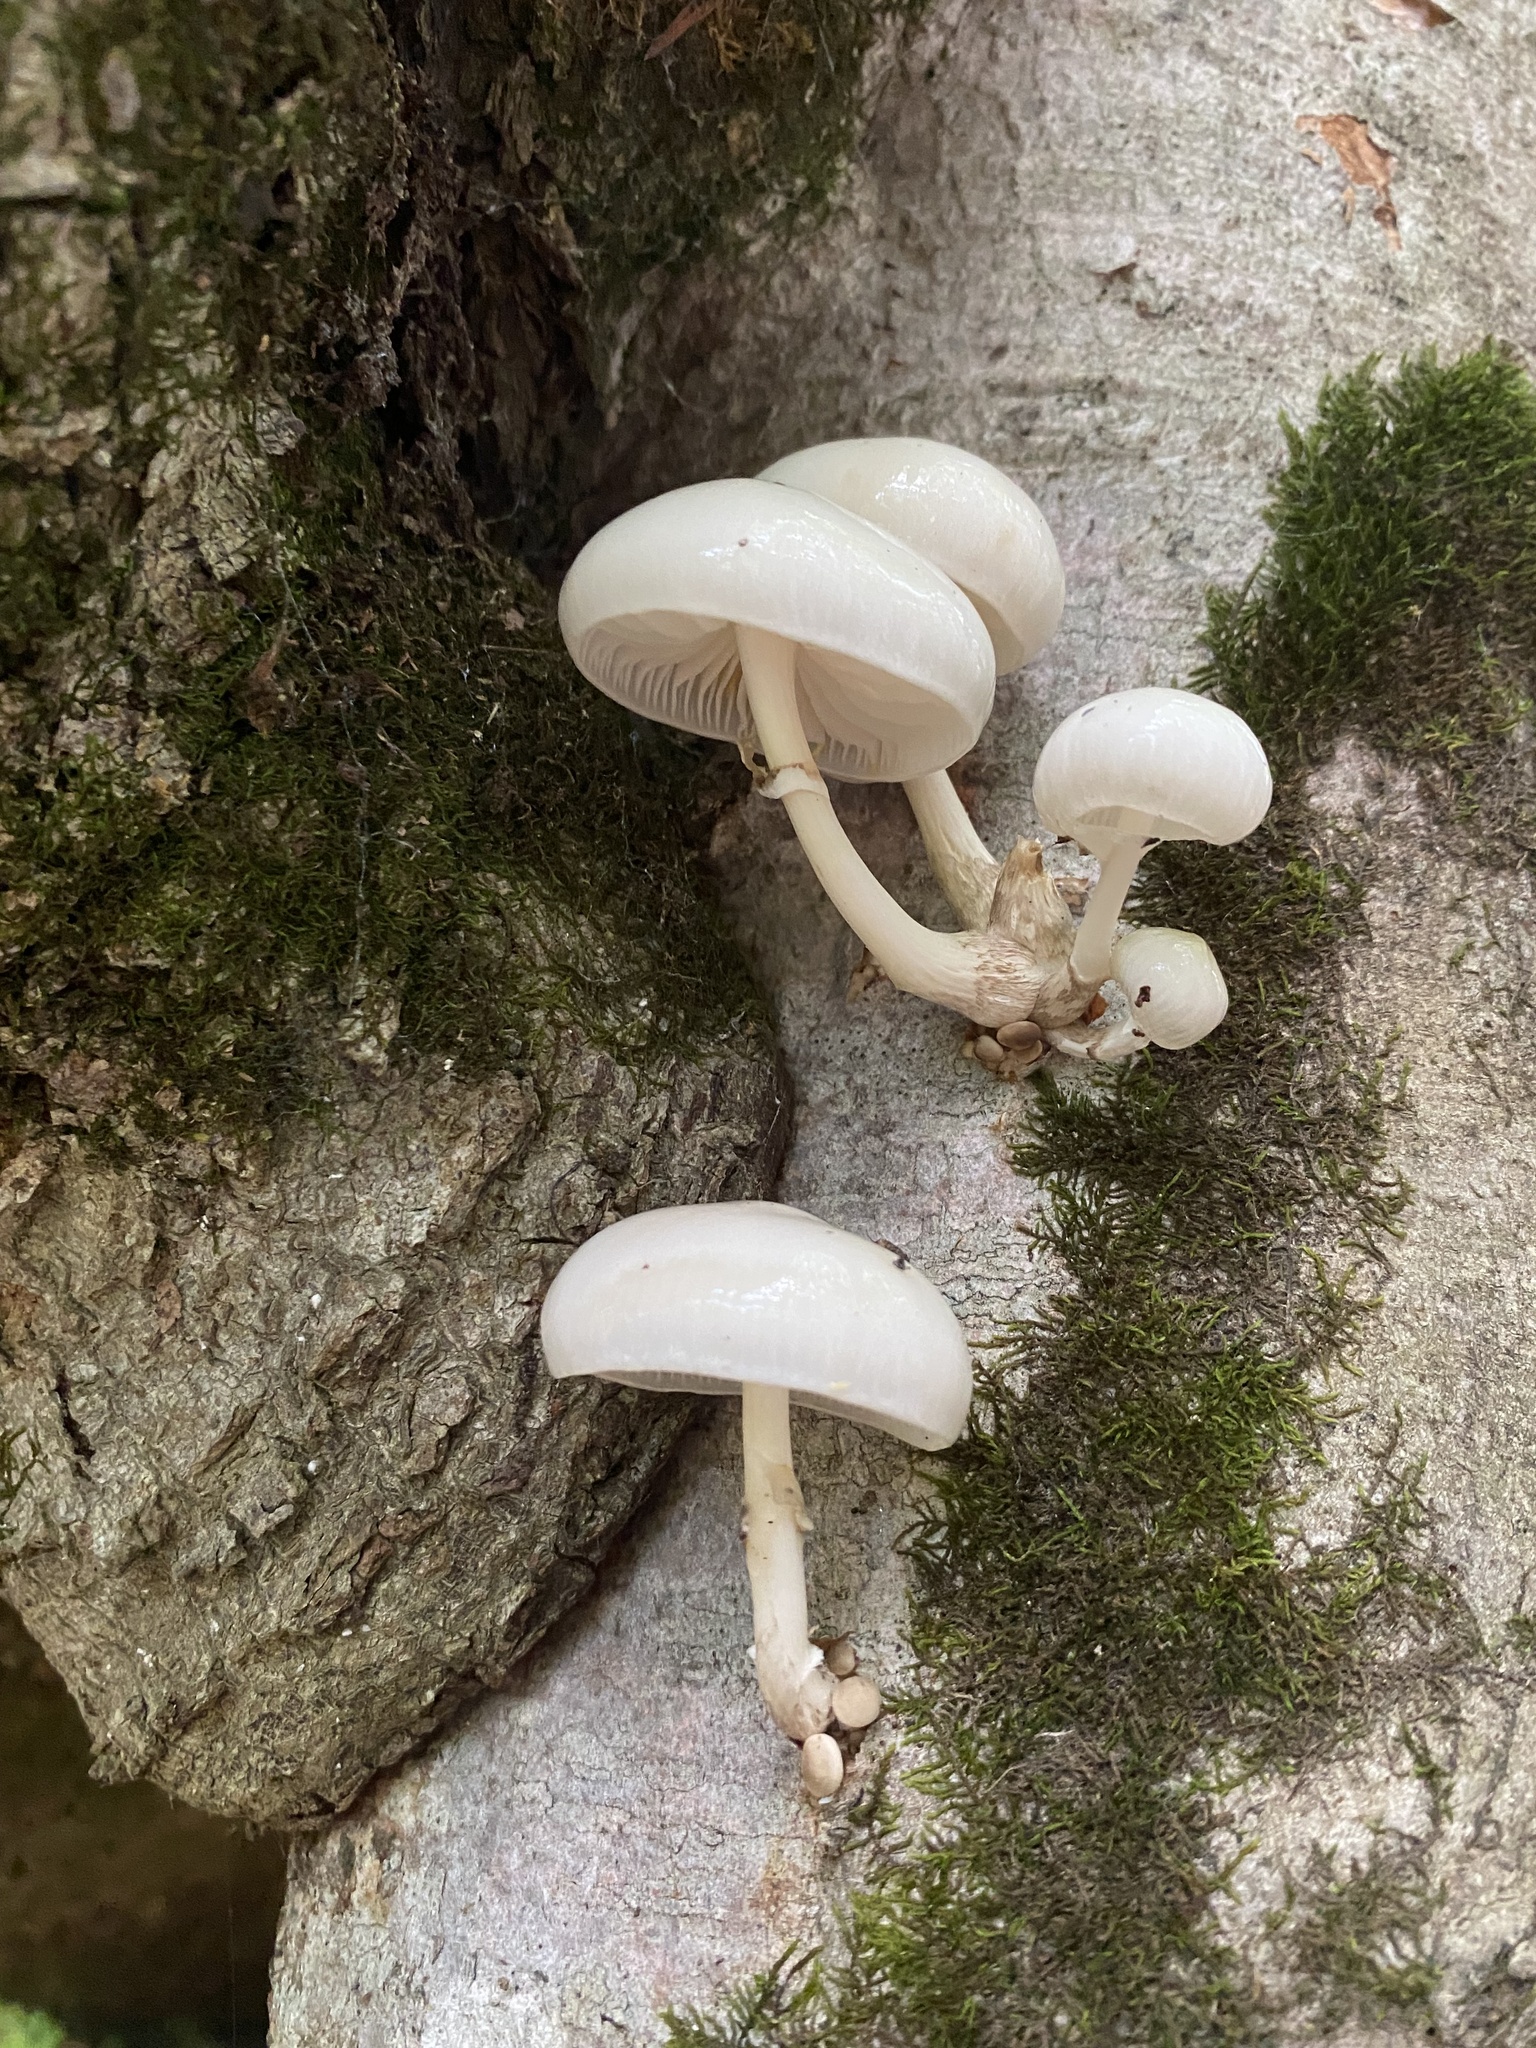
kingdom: Fungi
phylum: Basidiomycota
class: Agaricomycetes
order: Agaricales
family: Physalacriaceae
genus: Mucidula
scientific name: Mucidula mucida
